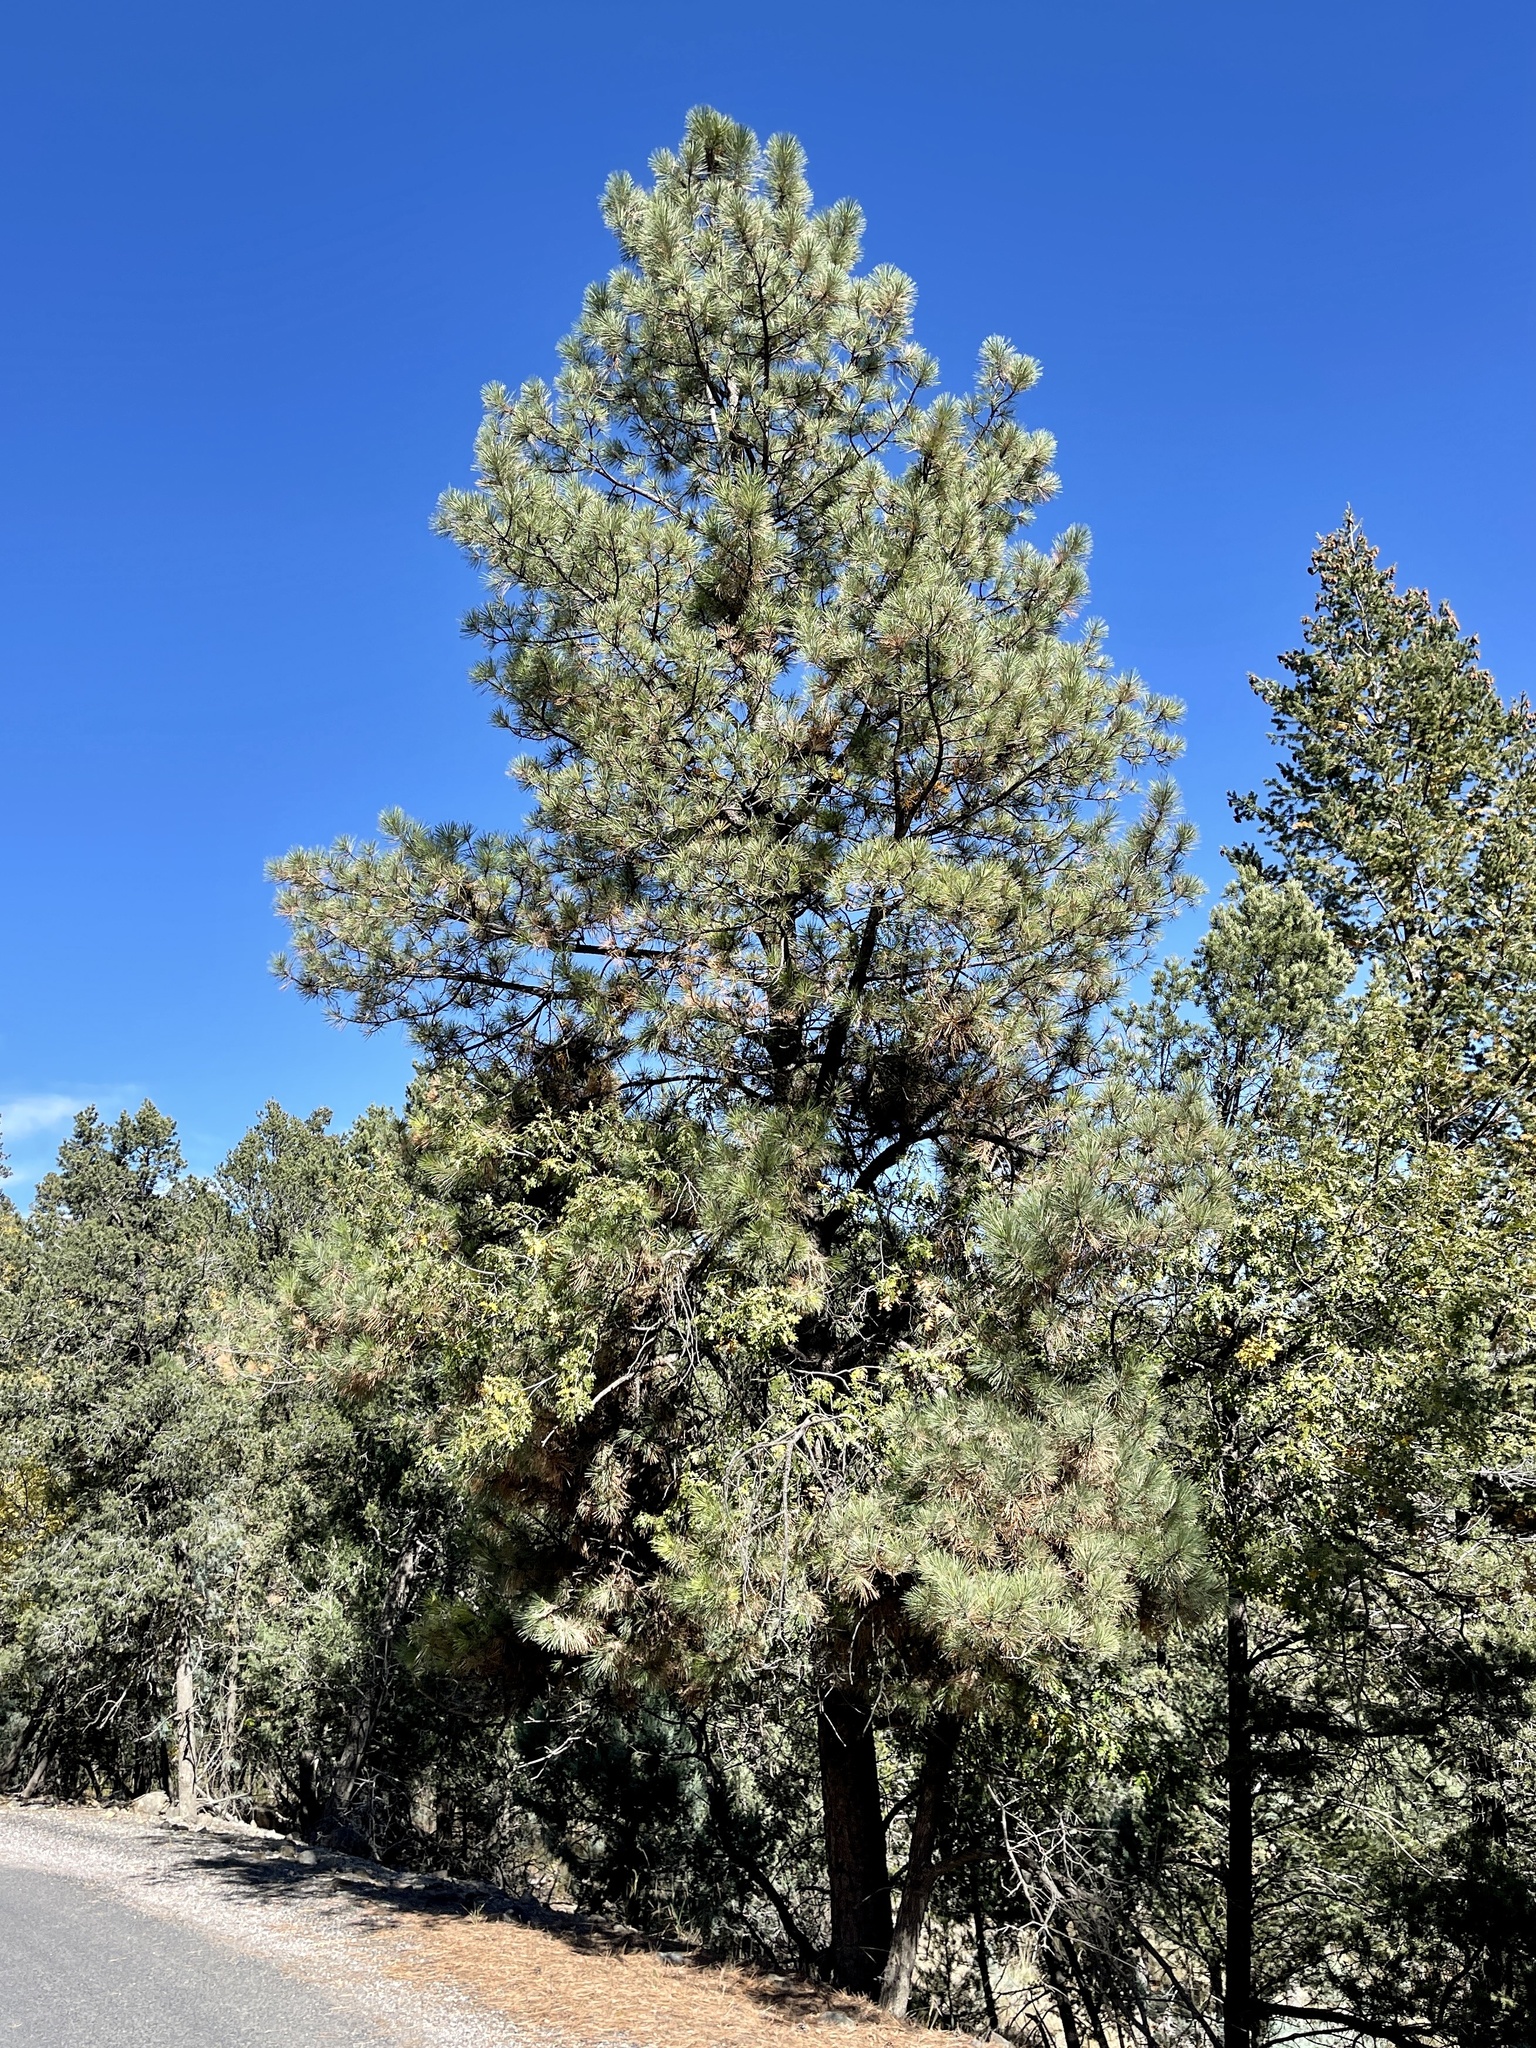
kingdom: Plantae
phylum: Tracheophyta
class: Pinopsida
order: Pinales
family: Pinaceae
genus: Pinus
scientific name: Pinus ponderosa
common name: Western yellow-pine
